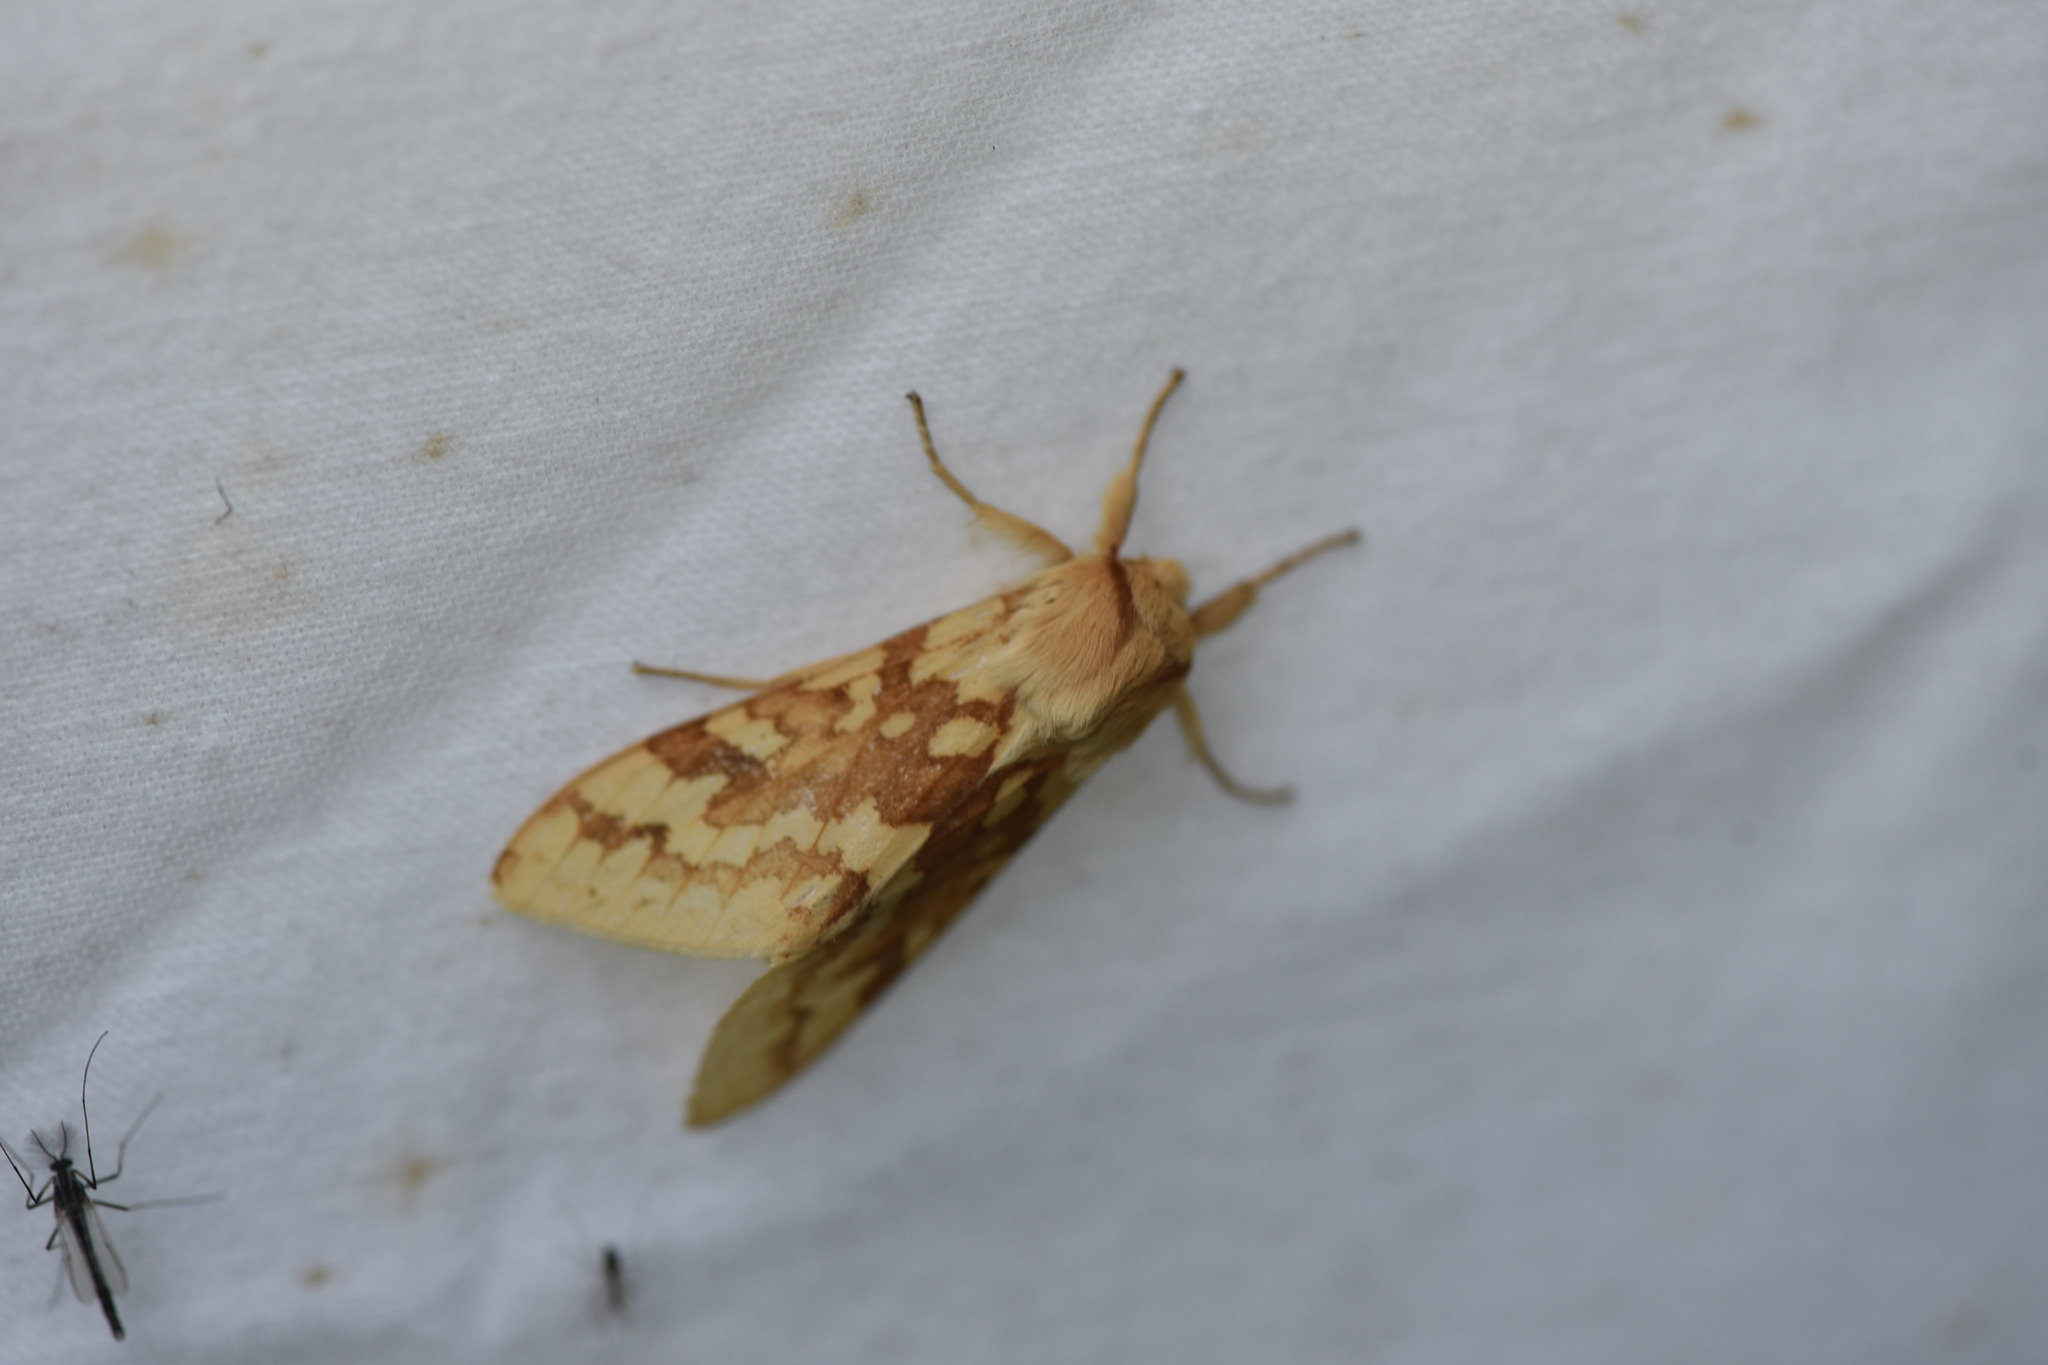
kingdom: Animalia
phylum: Arthropoda
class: Insecta
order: Lepidoptera
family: Erebidae
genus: Lophocampa
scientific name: Lophocampa maculata
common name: Spotted tussock moth
